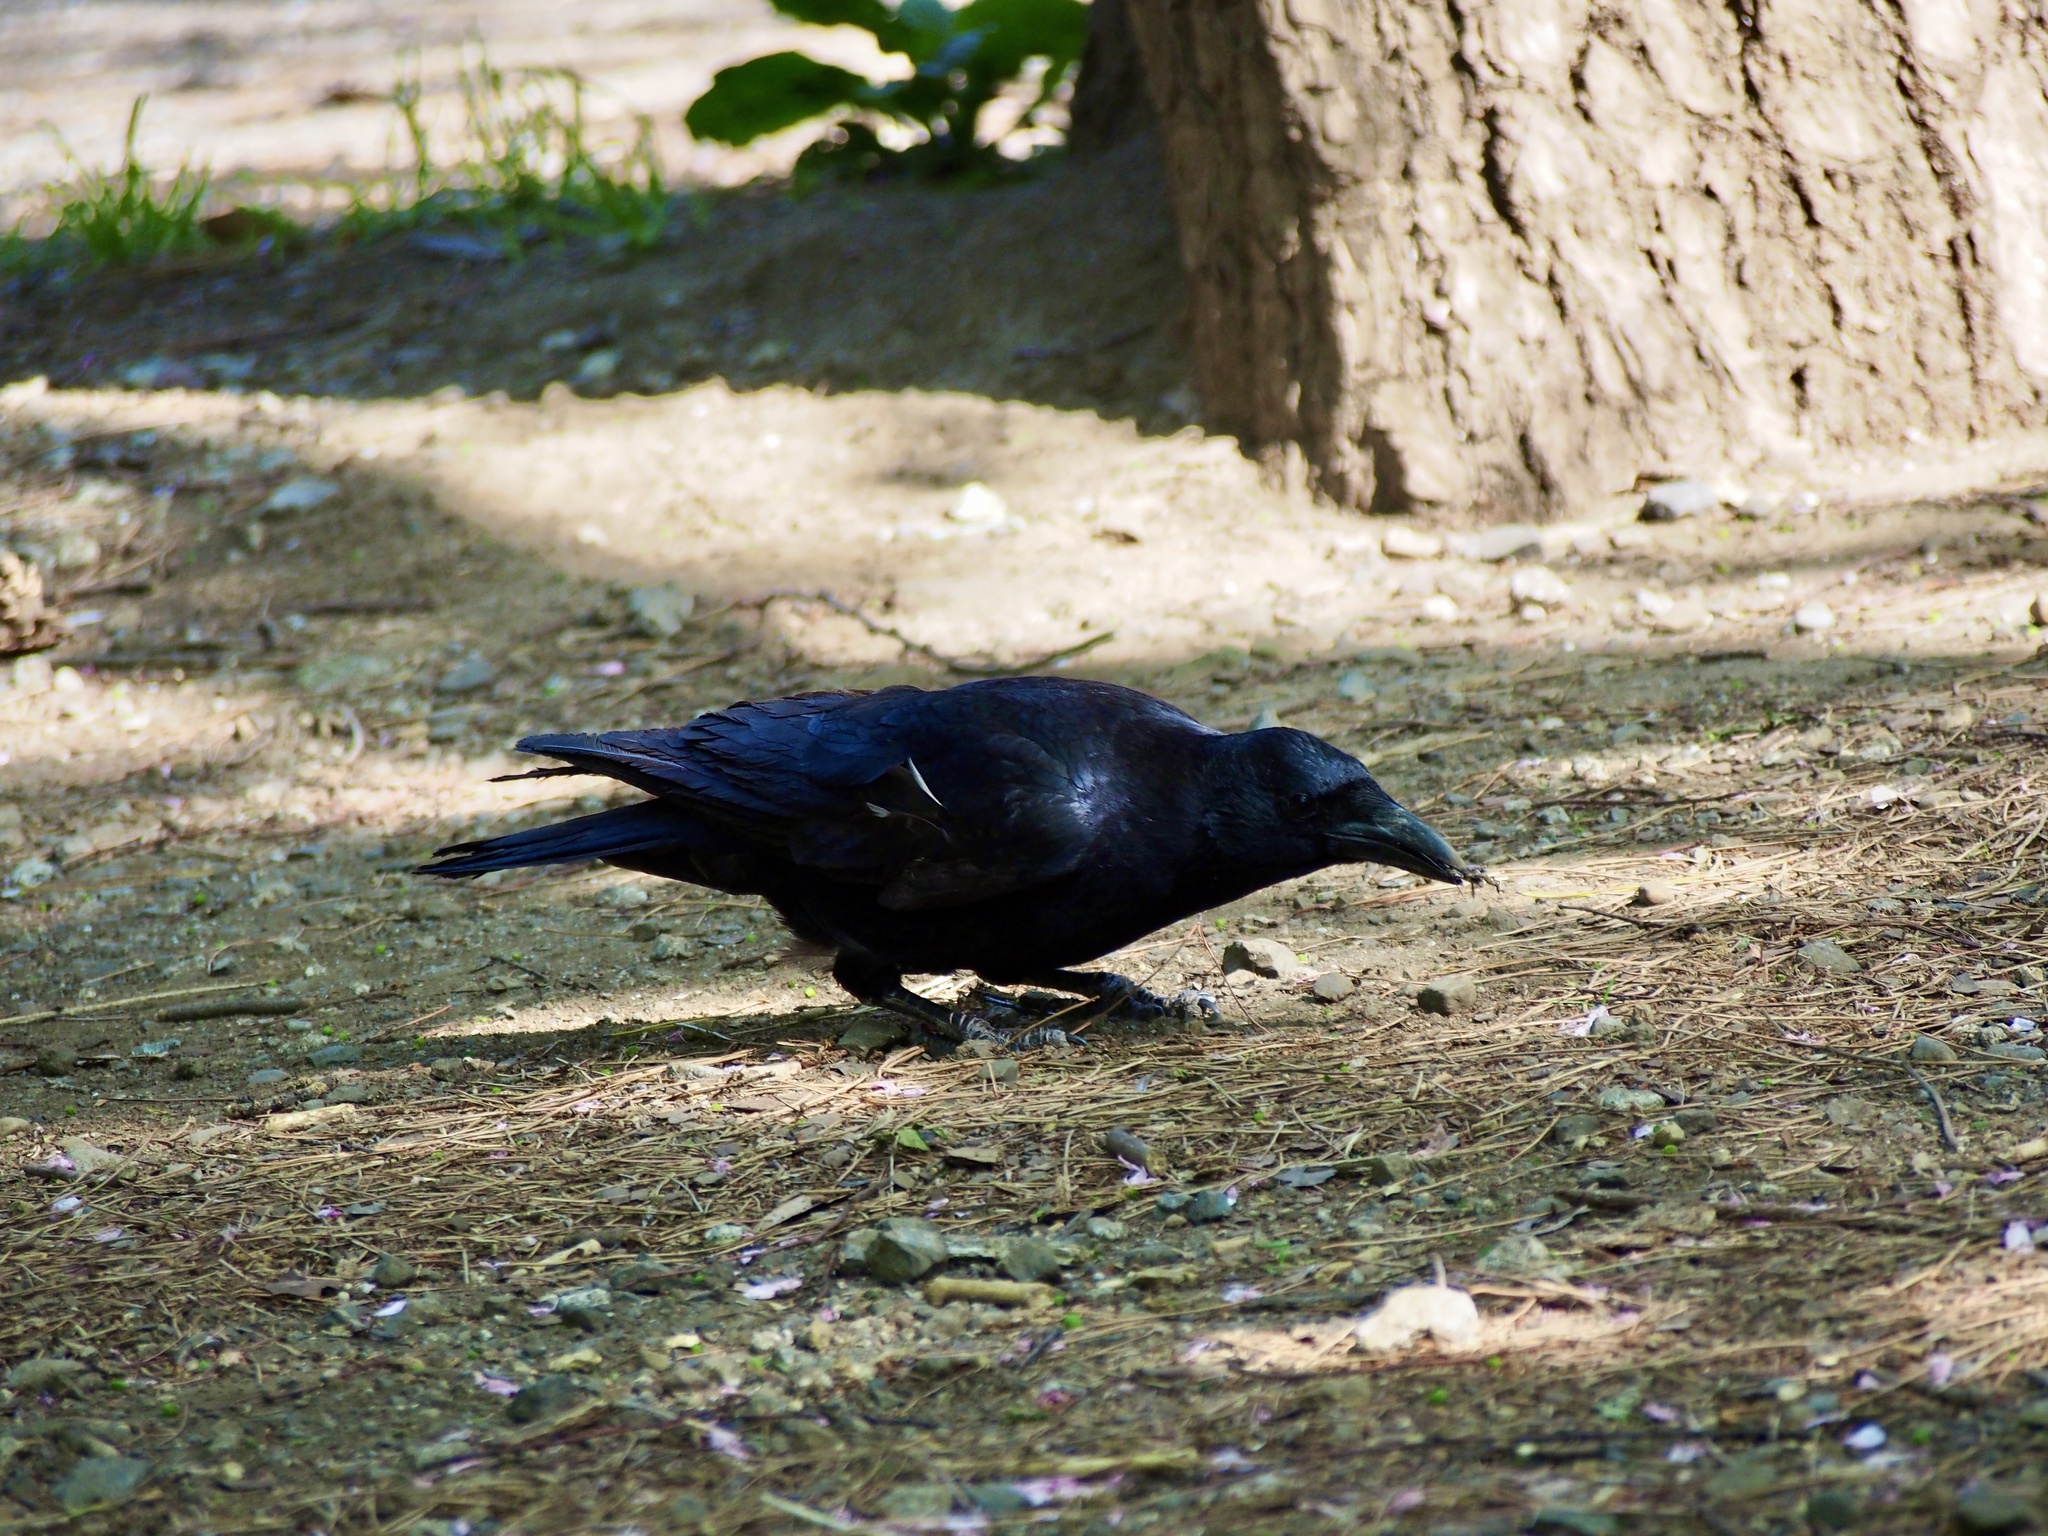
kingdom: Animalia
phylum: Chordata
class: Aves
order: Passeriformes
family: Corvidae
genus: Corvus
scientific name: Corvus corone
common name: Carrion crow
